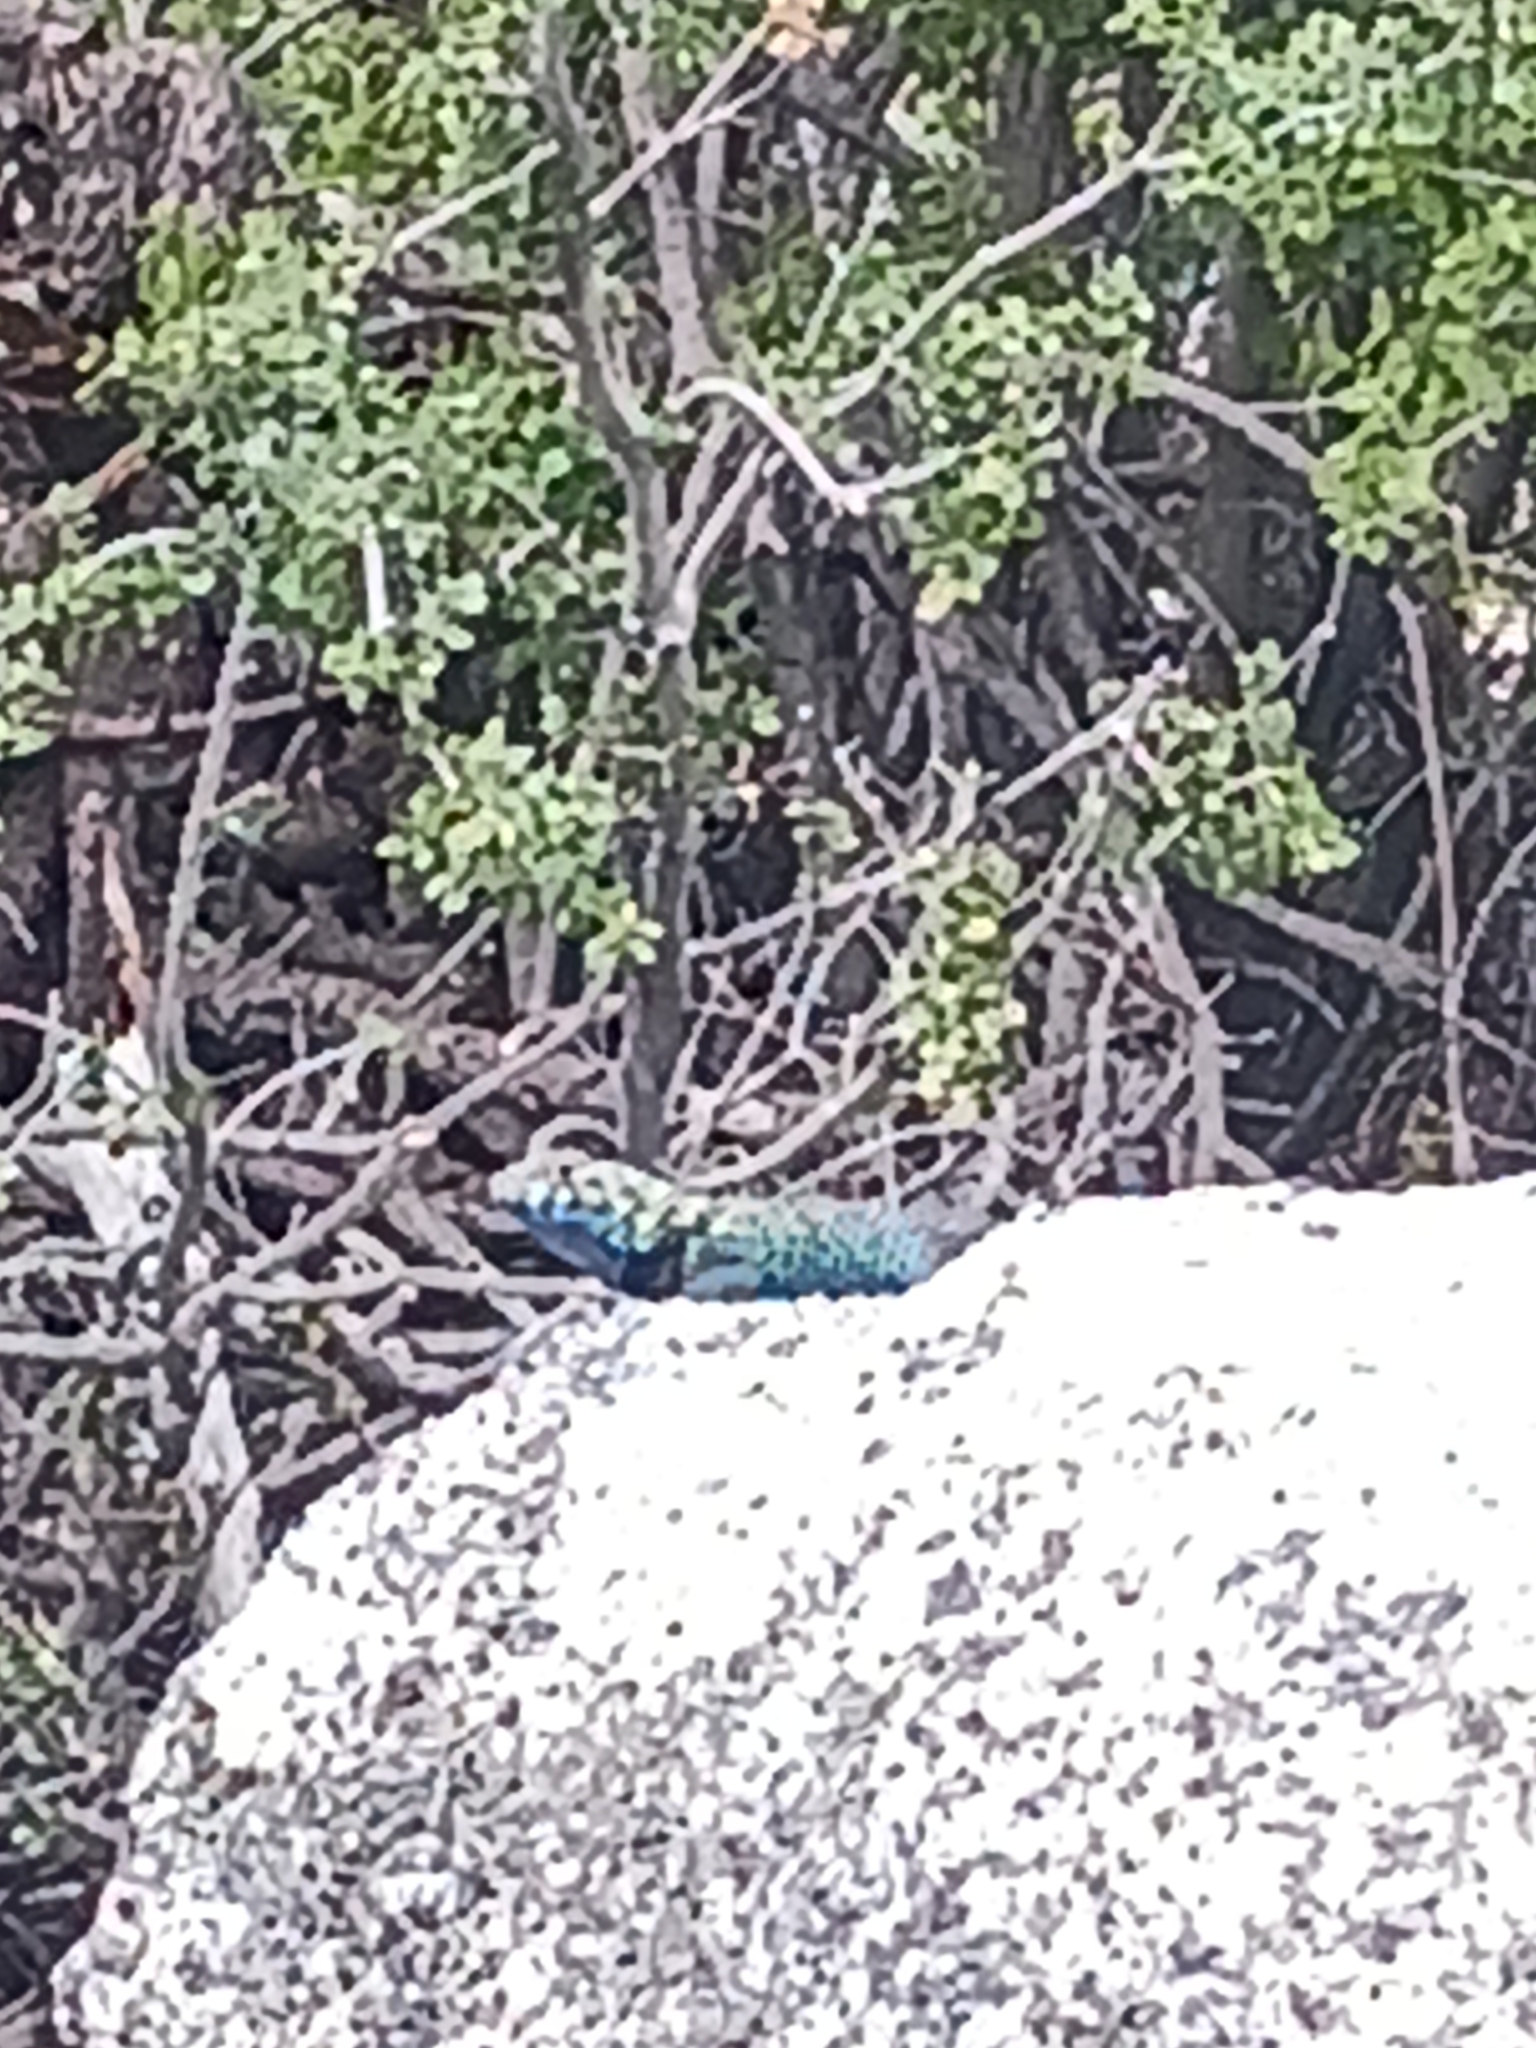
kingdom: Animalia
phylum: Chordata
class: Squamata
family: Phrynosomatidae
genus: Sceloporus
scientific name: Sceloporus orcutti
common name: Granite spiny lizard
